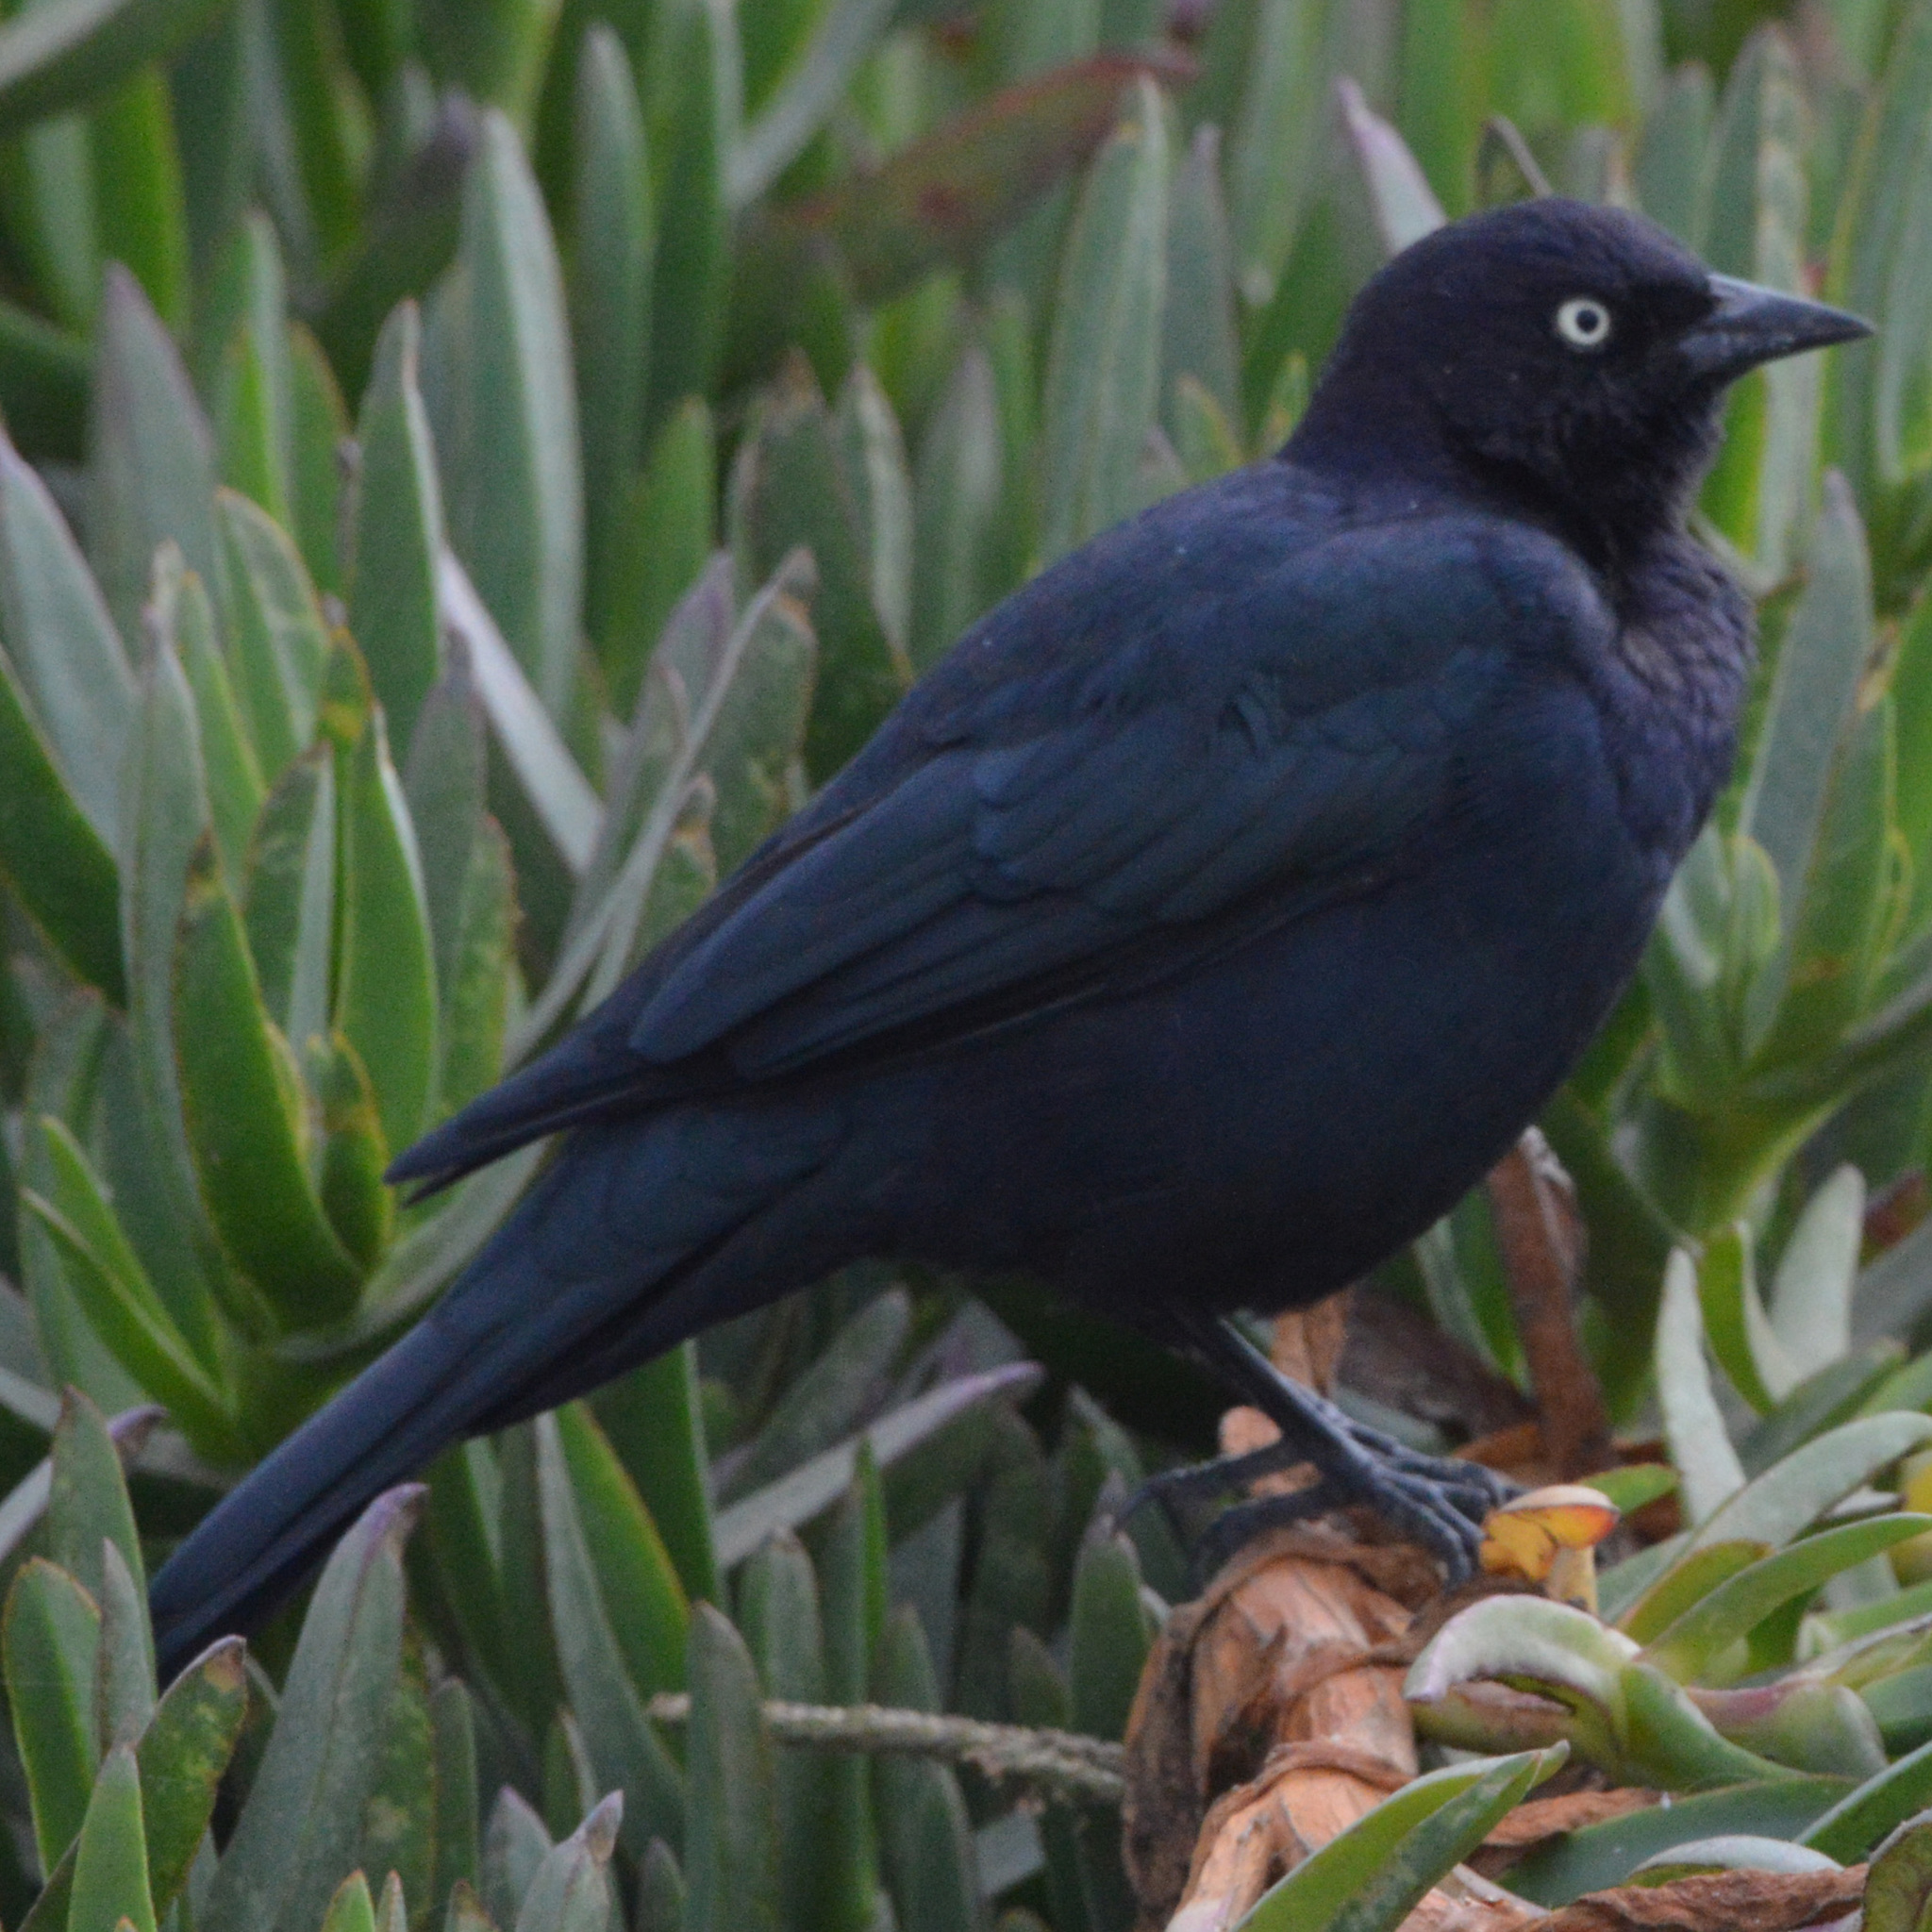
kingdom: Animalia
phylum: Chordata
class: Aves
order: Passeriformes
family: Icteridae
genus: Euphagus
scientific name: Euphagus cyanocephalus
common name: Brewer's blackbird
